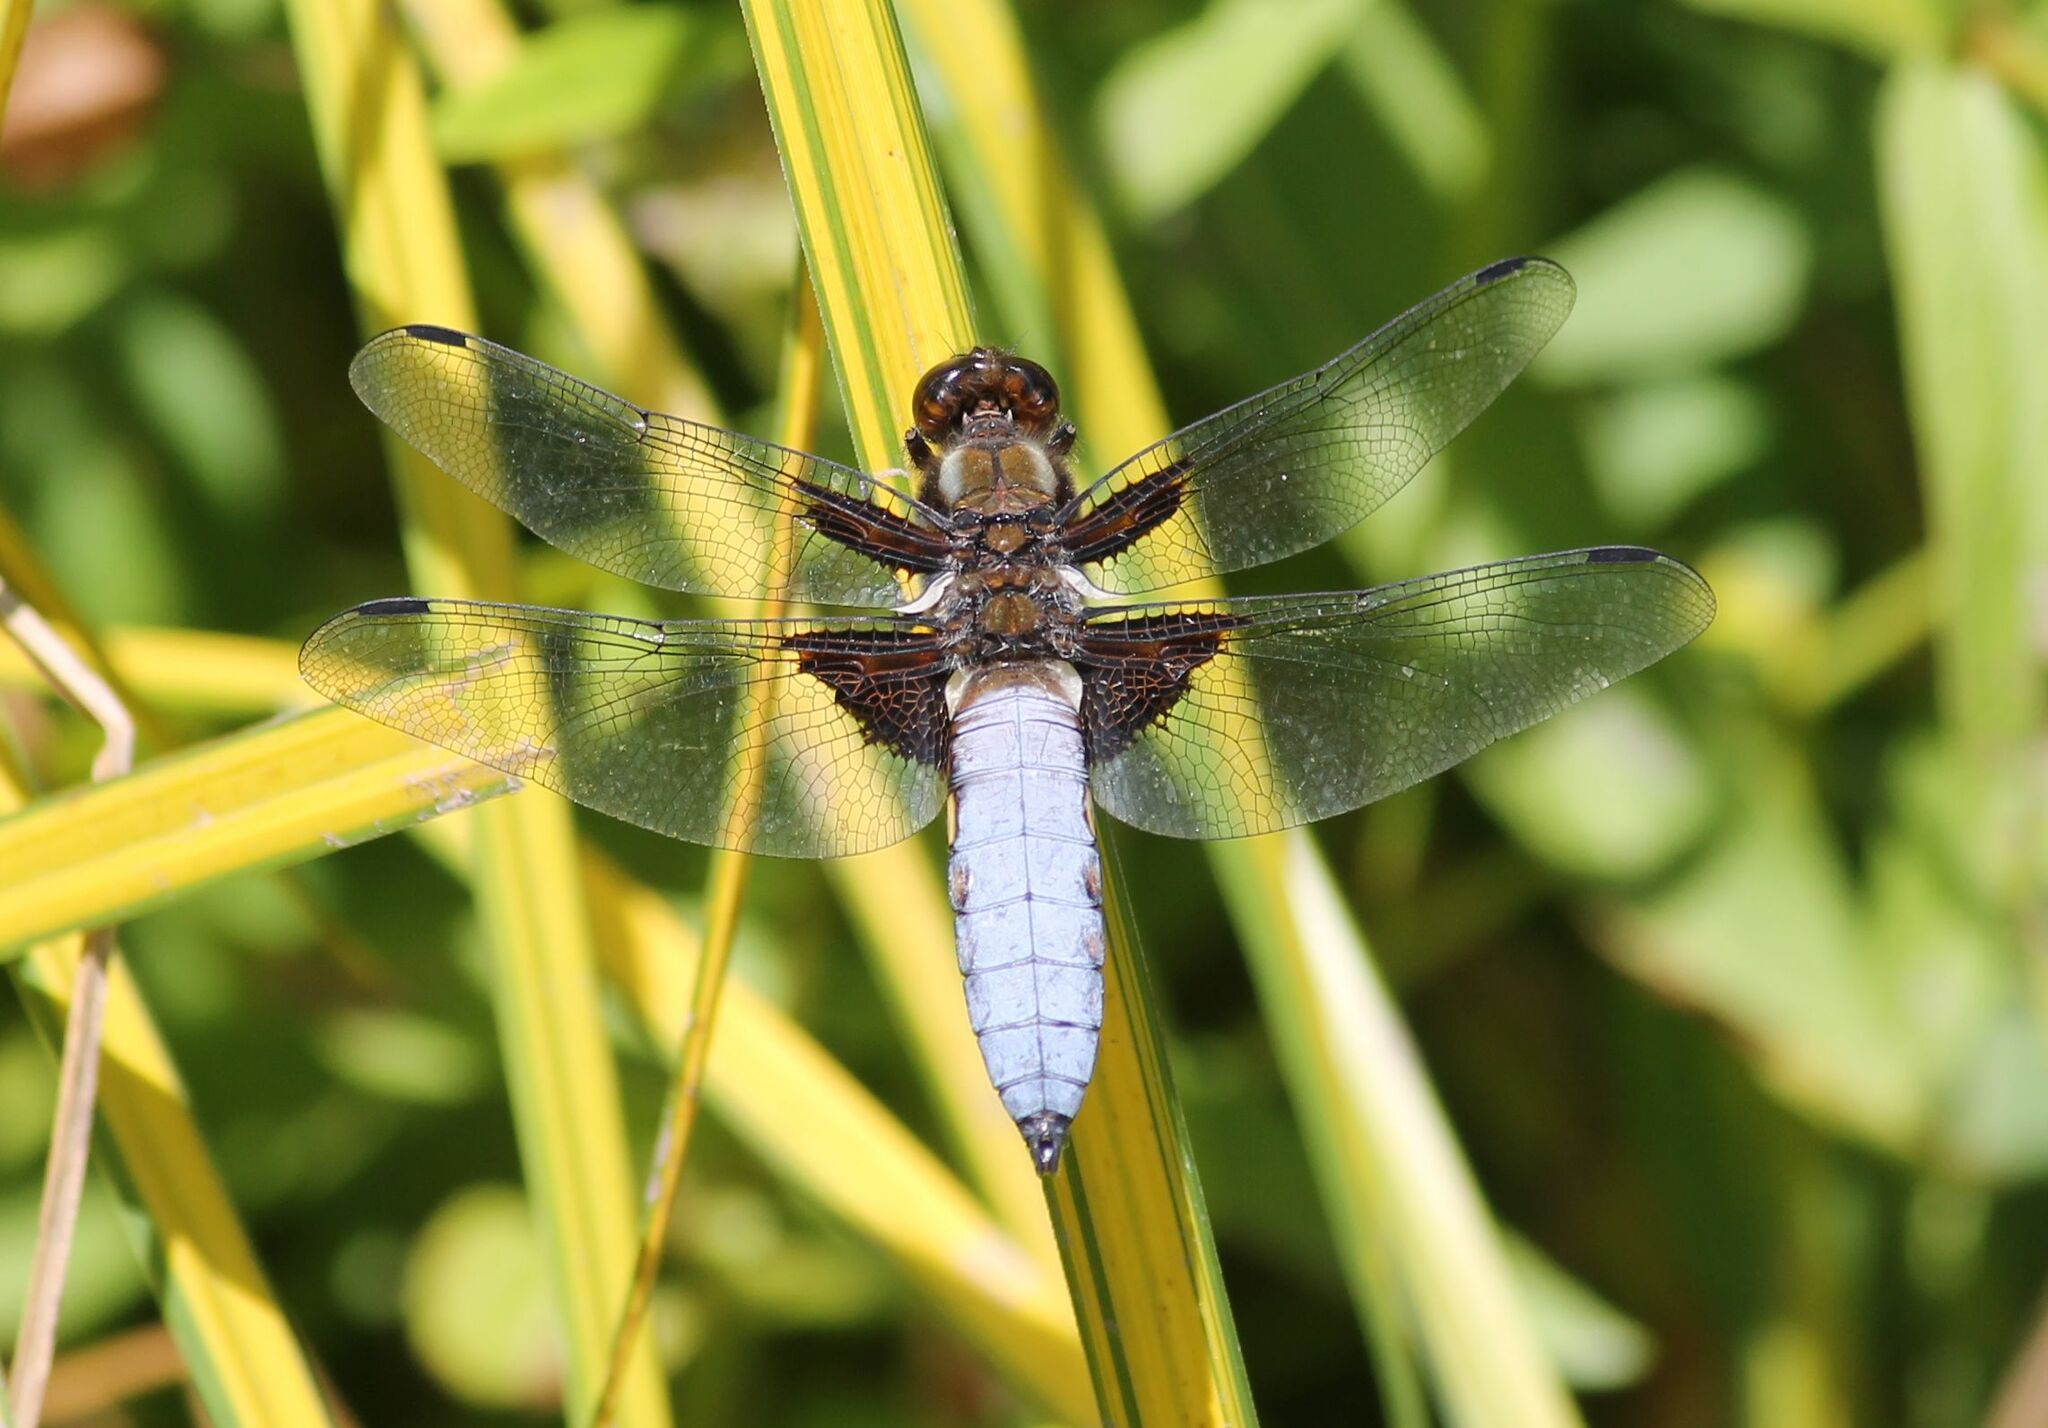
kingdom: Animalia
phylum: Arthropoda
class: Insecta
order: Odonata
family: Libellulidae
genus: Libellula
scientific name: Libellula depressa
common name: Broad-bodied chaser
